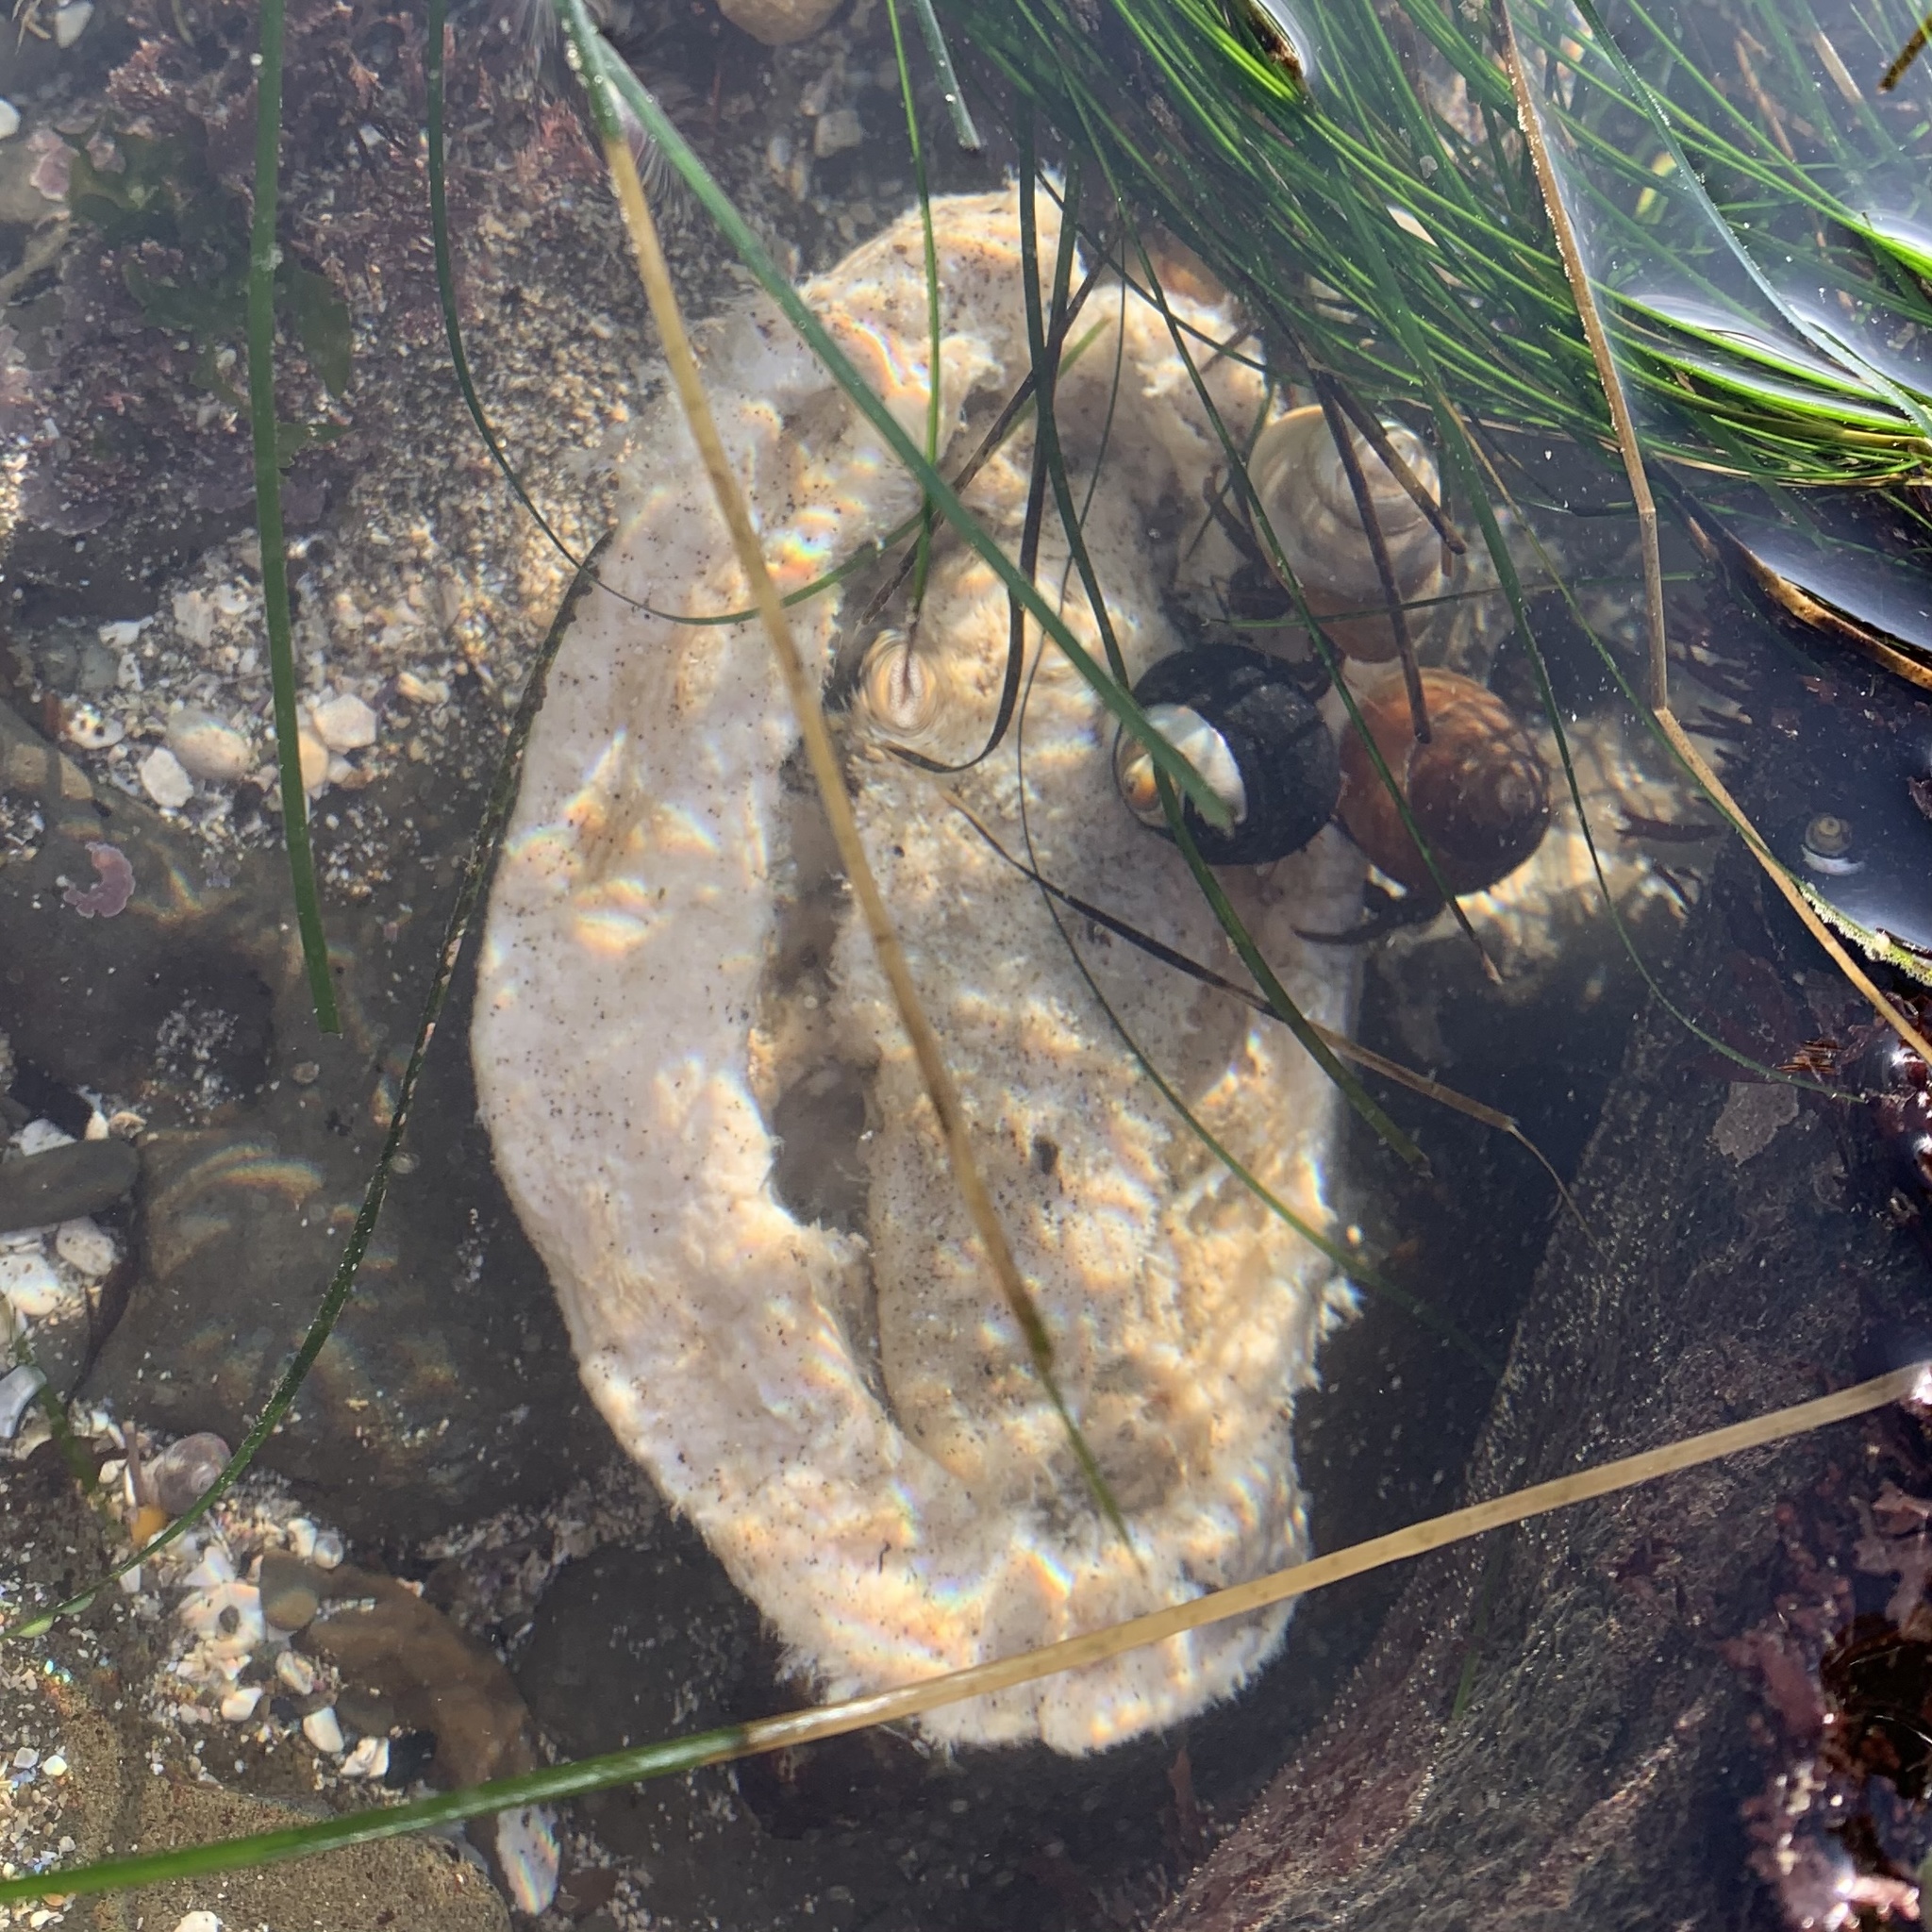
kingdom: Animalia
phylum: Mollusca
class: Polyplacophora
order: Chitonida
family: Acanthochitonidae
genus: Cryptochiton
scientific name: Cryptochiton stelleri
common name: Giant pacific chiton
